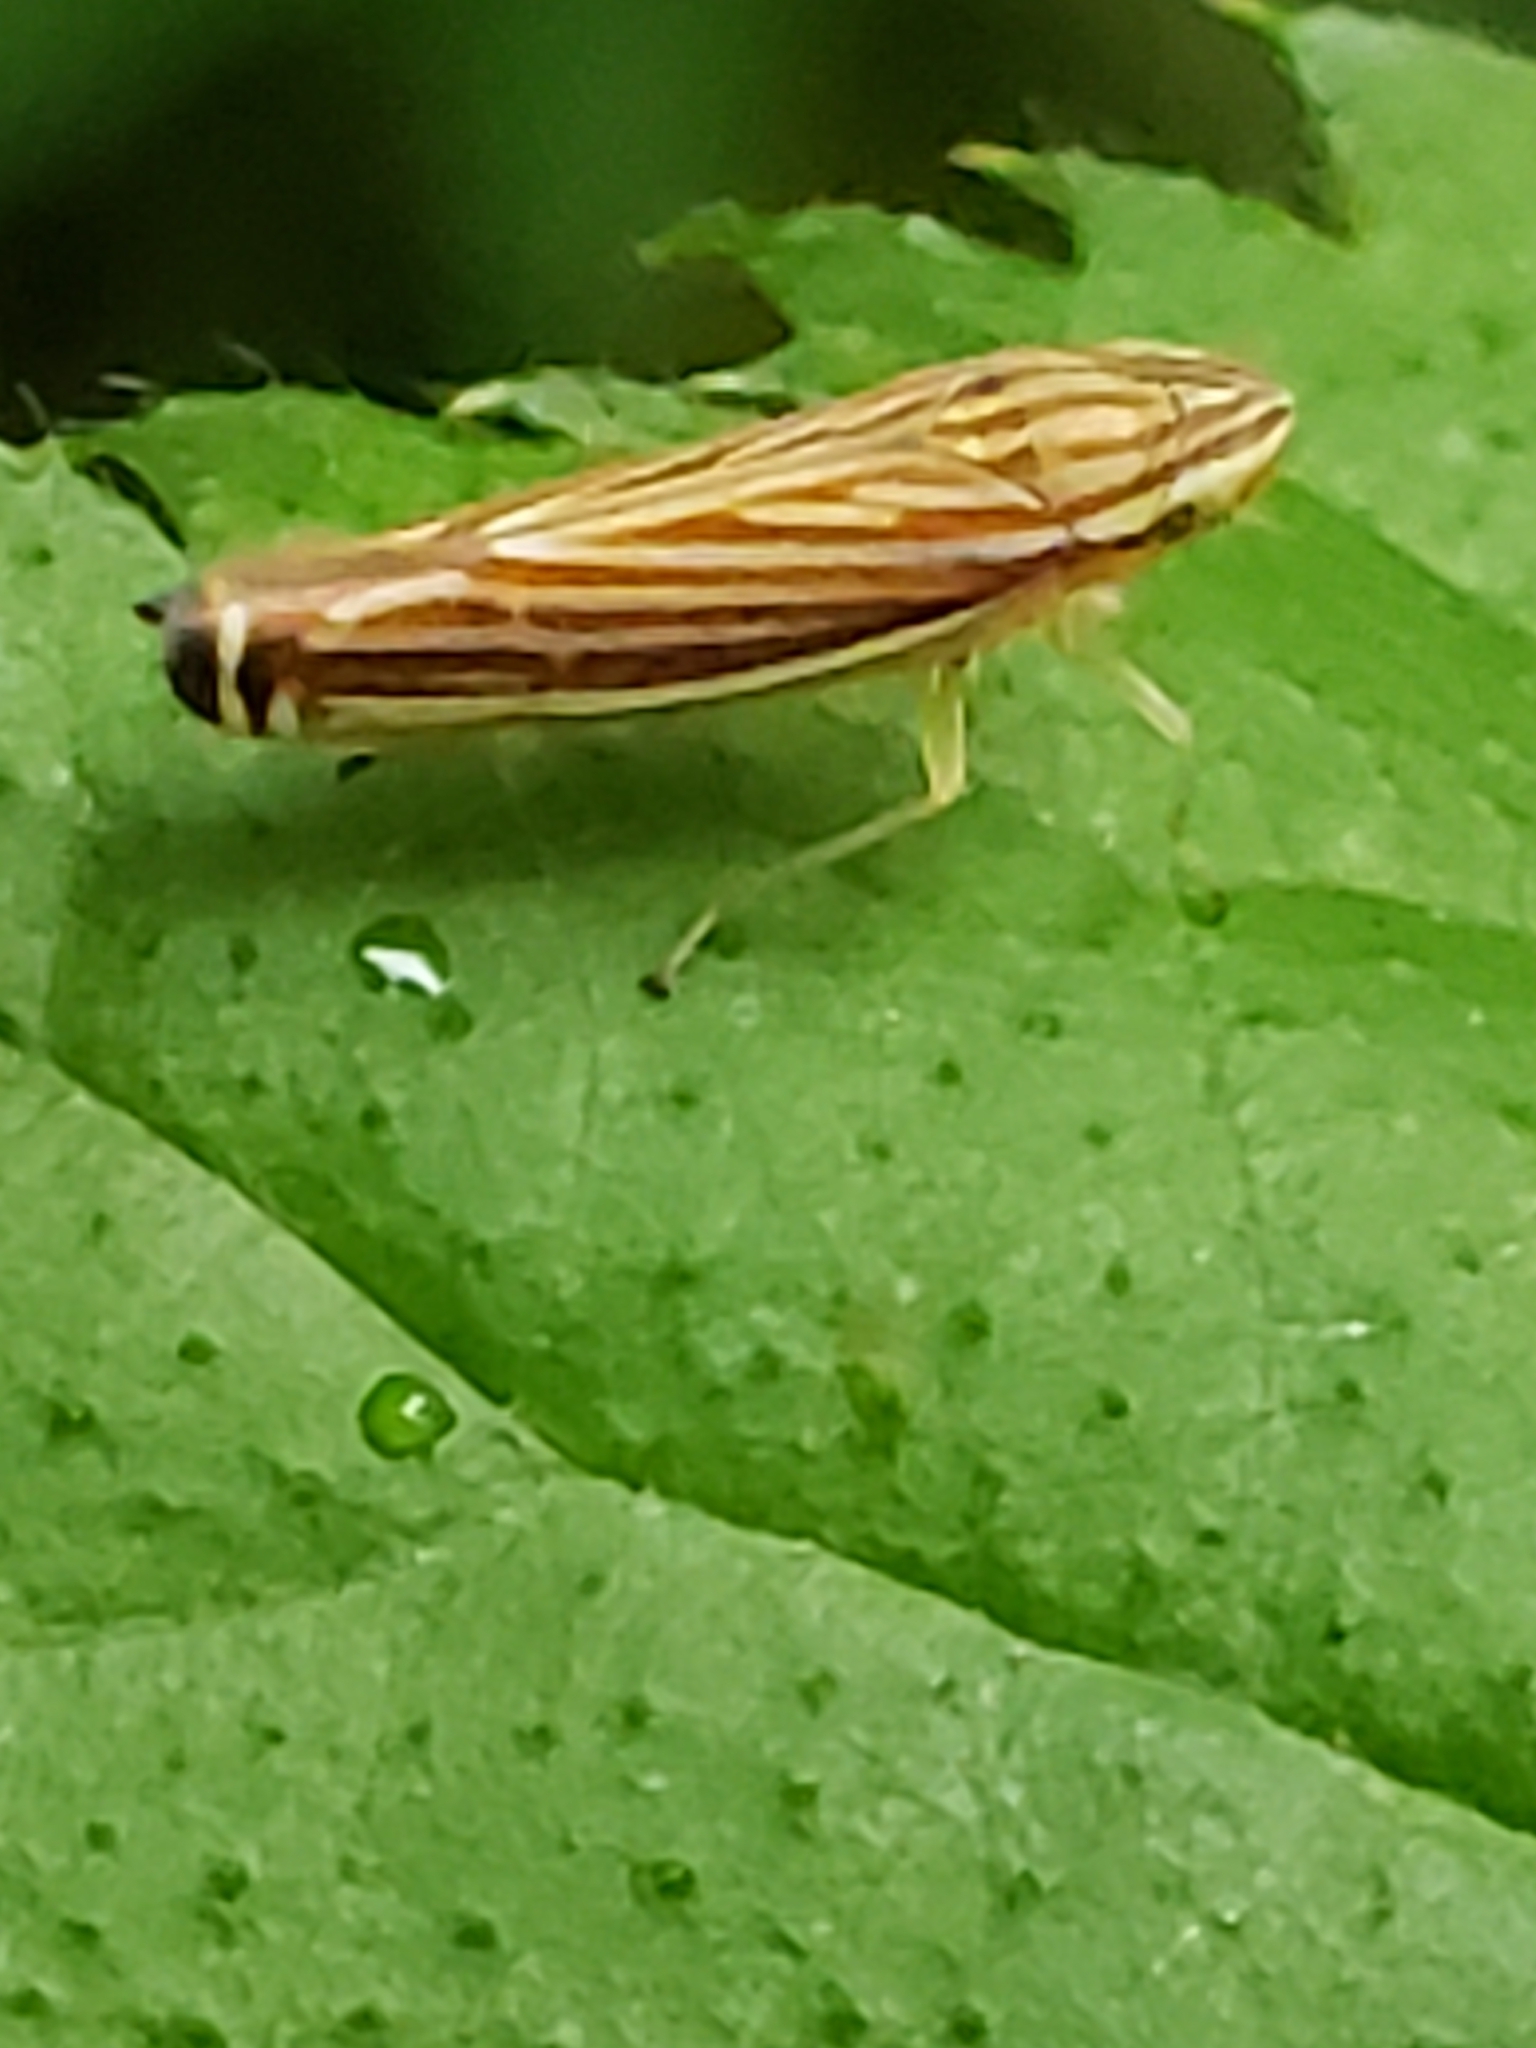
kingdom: Animalia
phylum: Arthropoda
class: Insecta
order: Hemiptera
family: Cicadellidae
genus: Sibovia
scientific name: Sibovia occatoria
